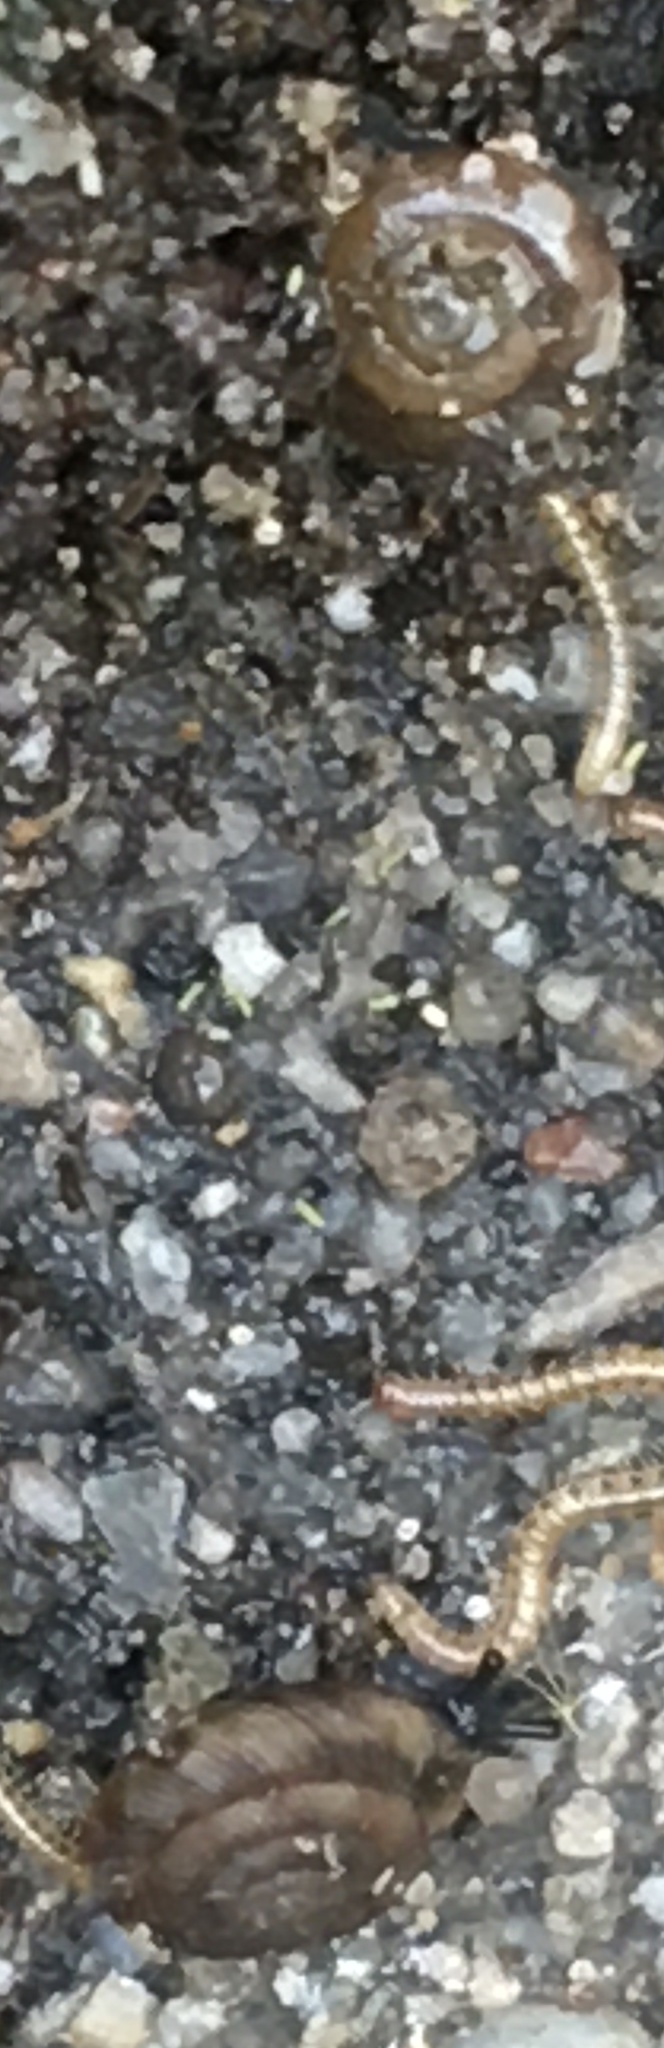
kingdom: Animalia
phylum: Mollusca
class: Gastropoda
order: Stylommatophora
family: Discidae
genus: Discus
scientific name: Discus rotundatus
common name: Rounded snail
